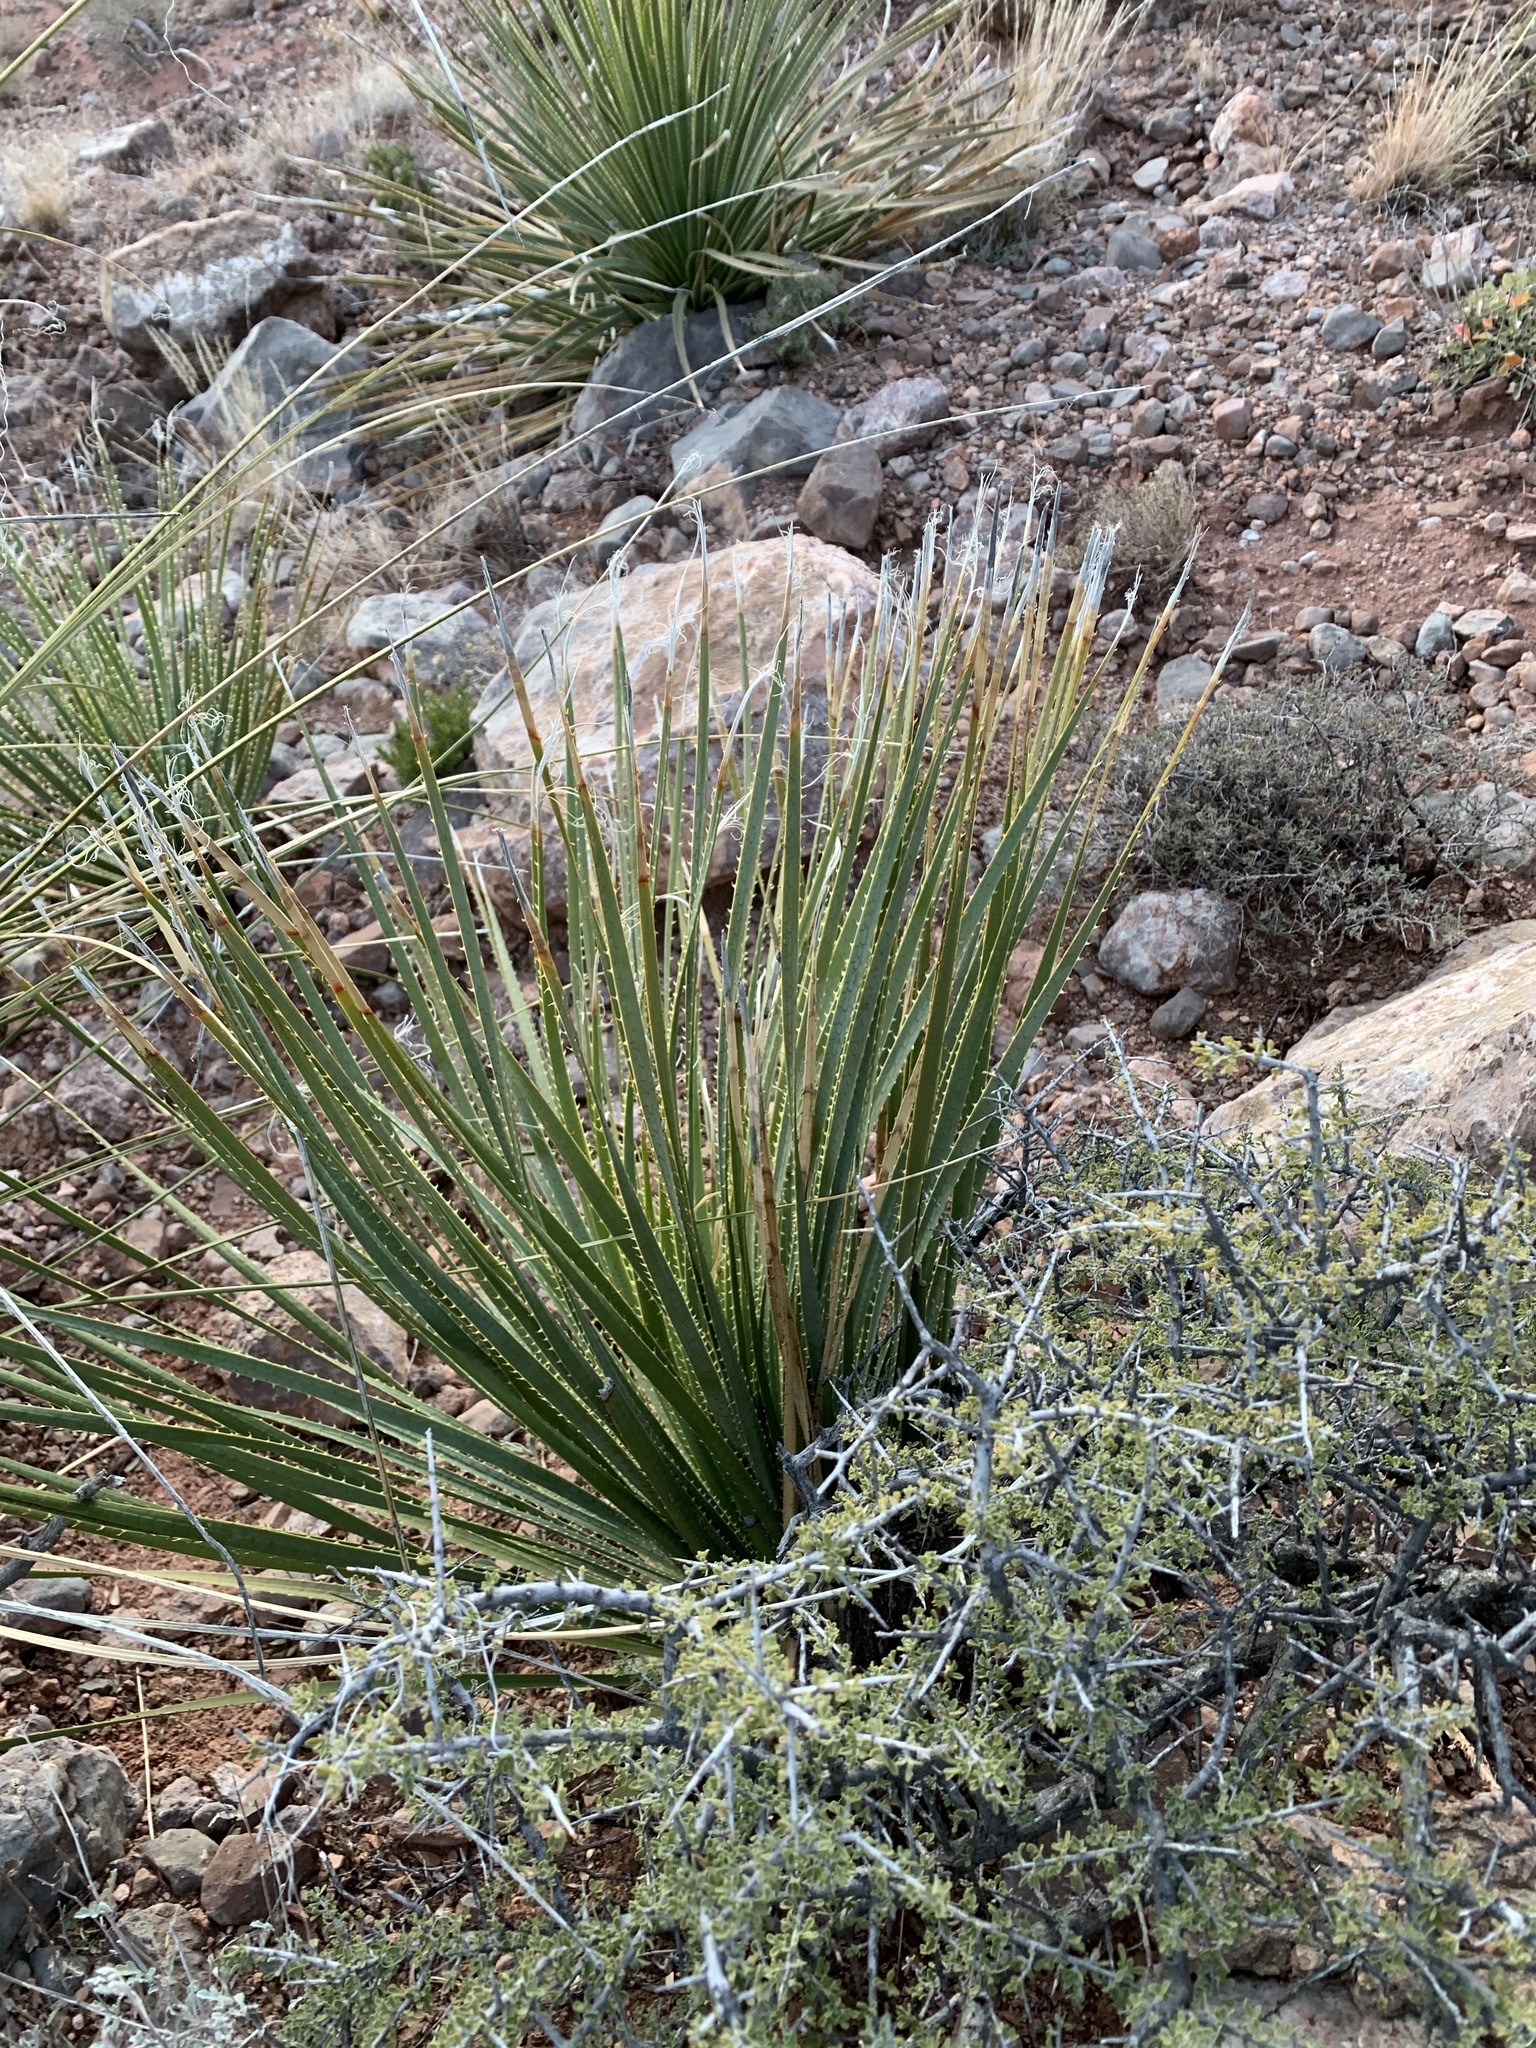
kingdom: Plantae
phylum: Tracheophyta
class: Liliopsida
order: Asparagales
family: Asparagaceae
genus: Dasylirion
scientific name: Dasylirion wheeleri
